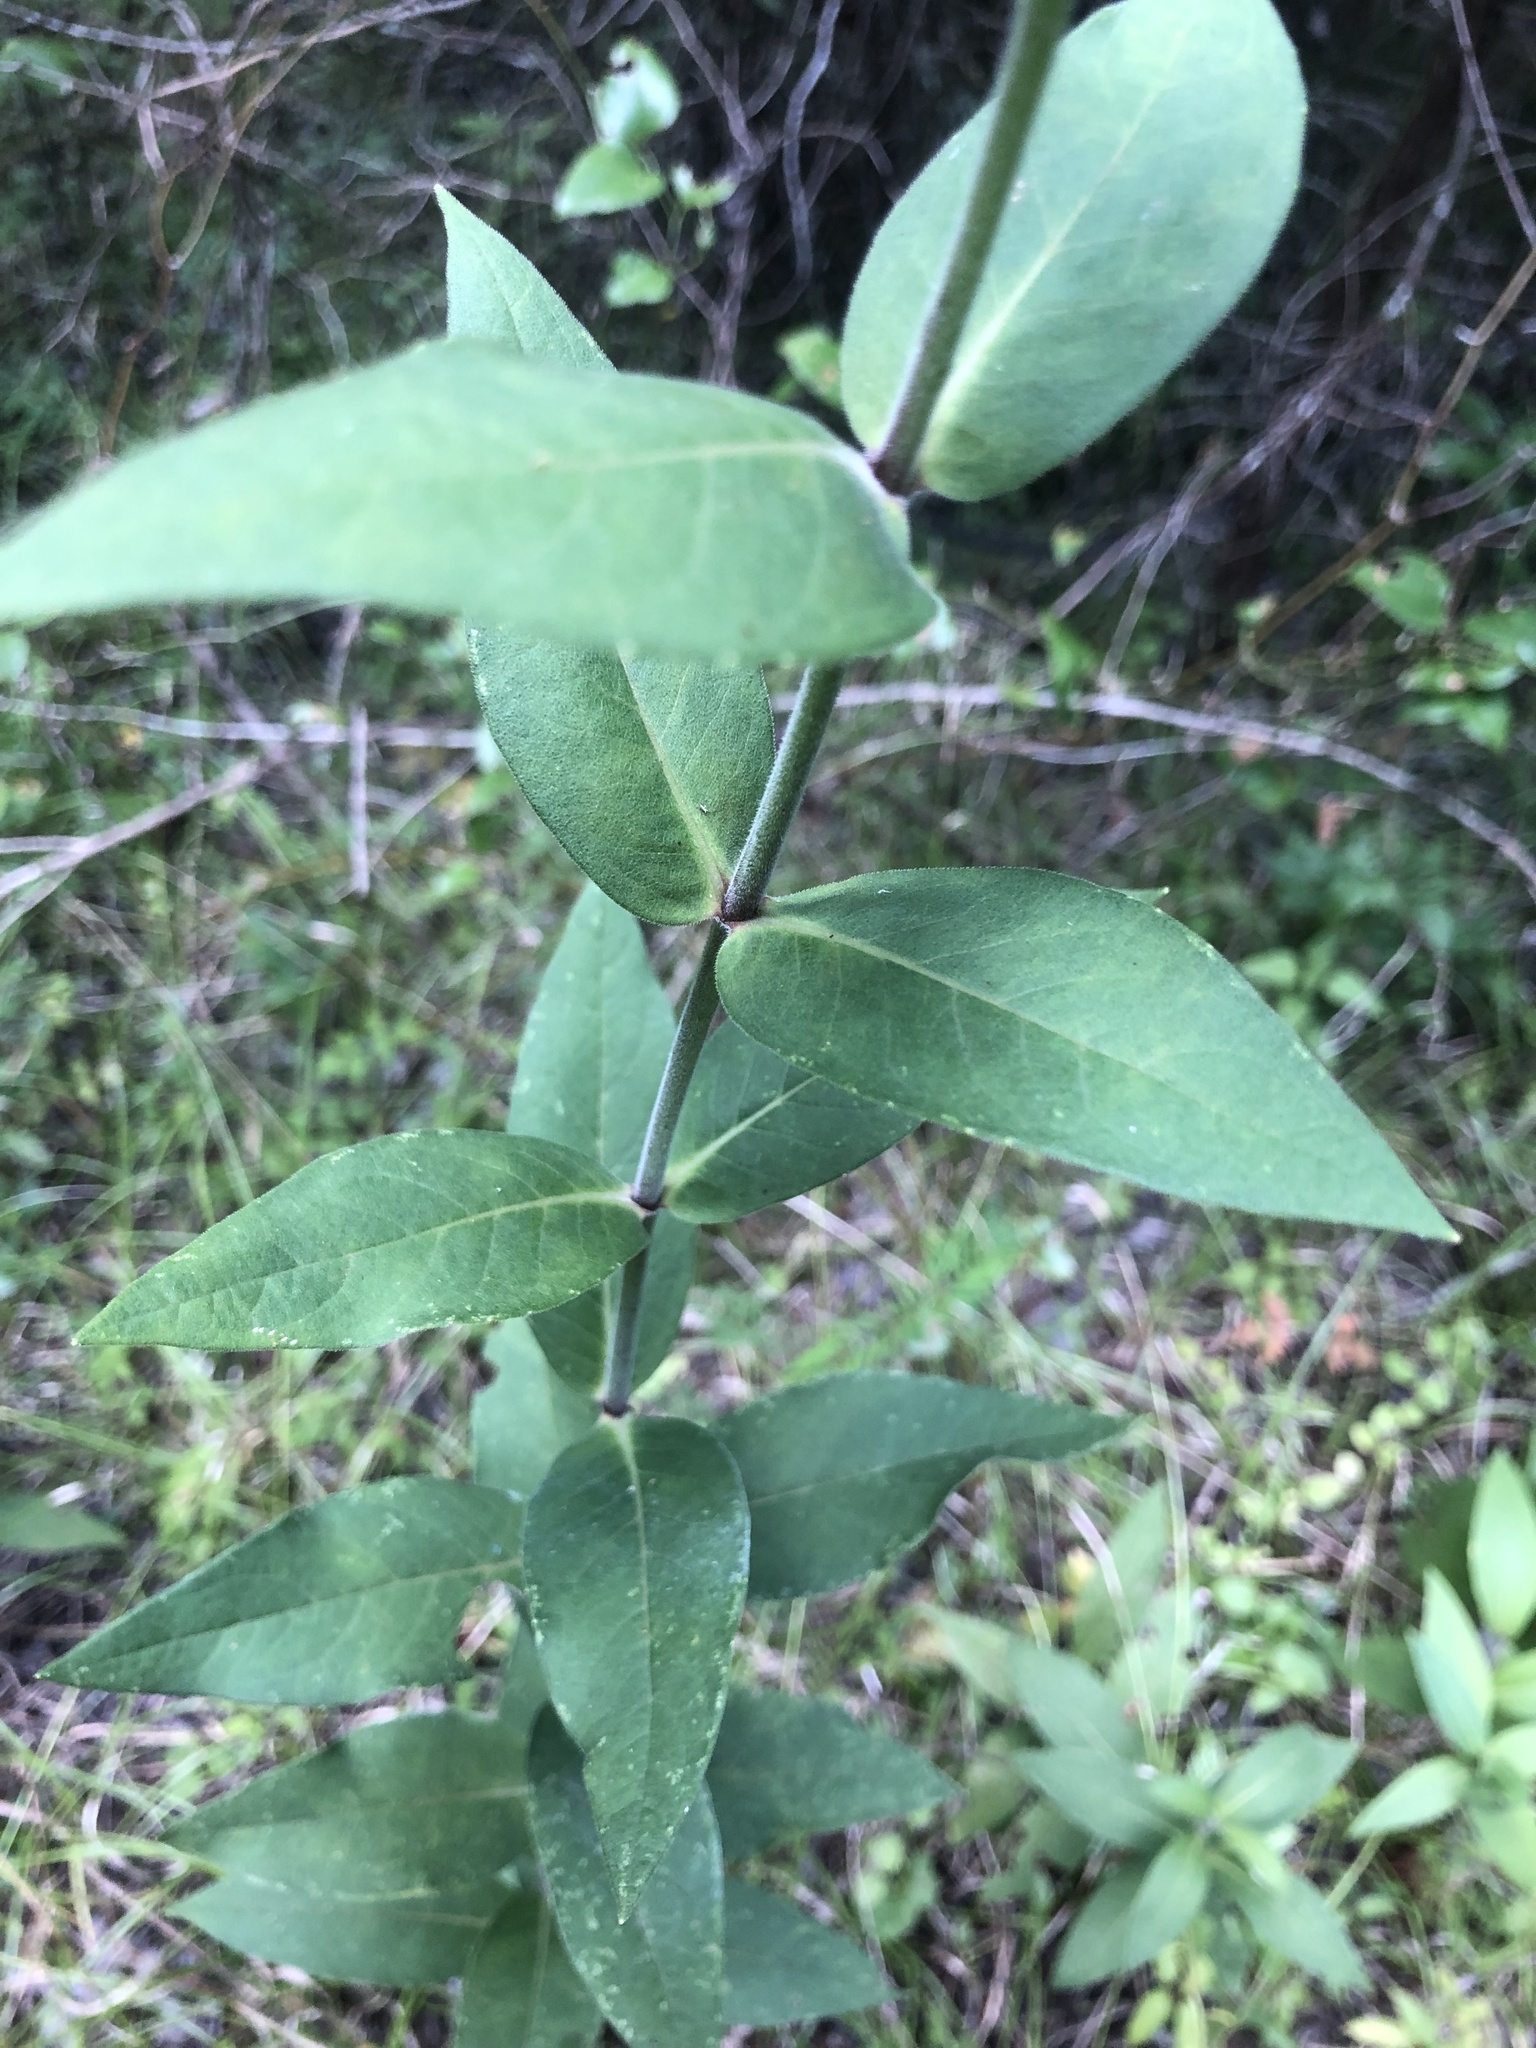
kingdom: Plantae
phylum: Tracheophyta
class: Magnoliopsida
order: Asterales
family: Asteraceae
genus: Silphium
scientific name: Silphium integrifolium
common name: Whole-leaf rosinweed
